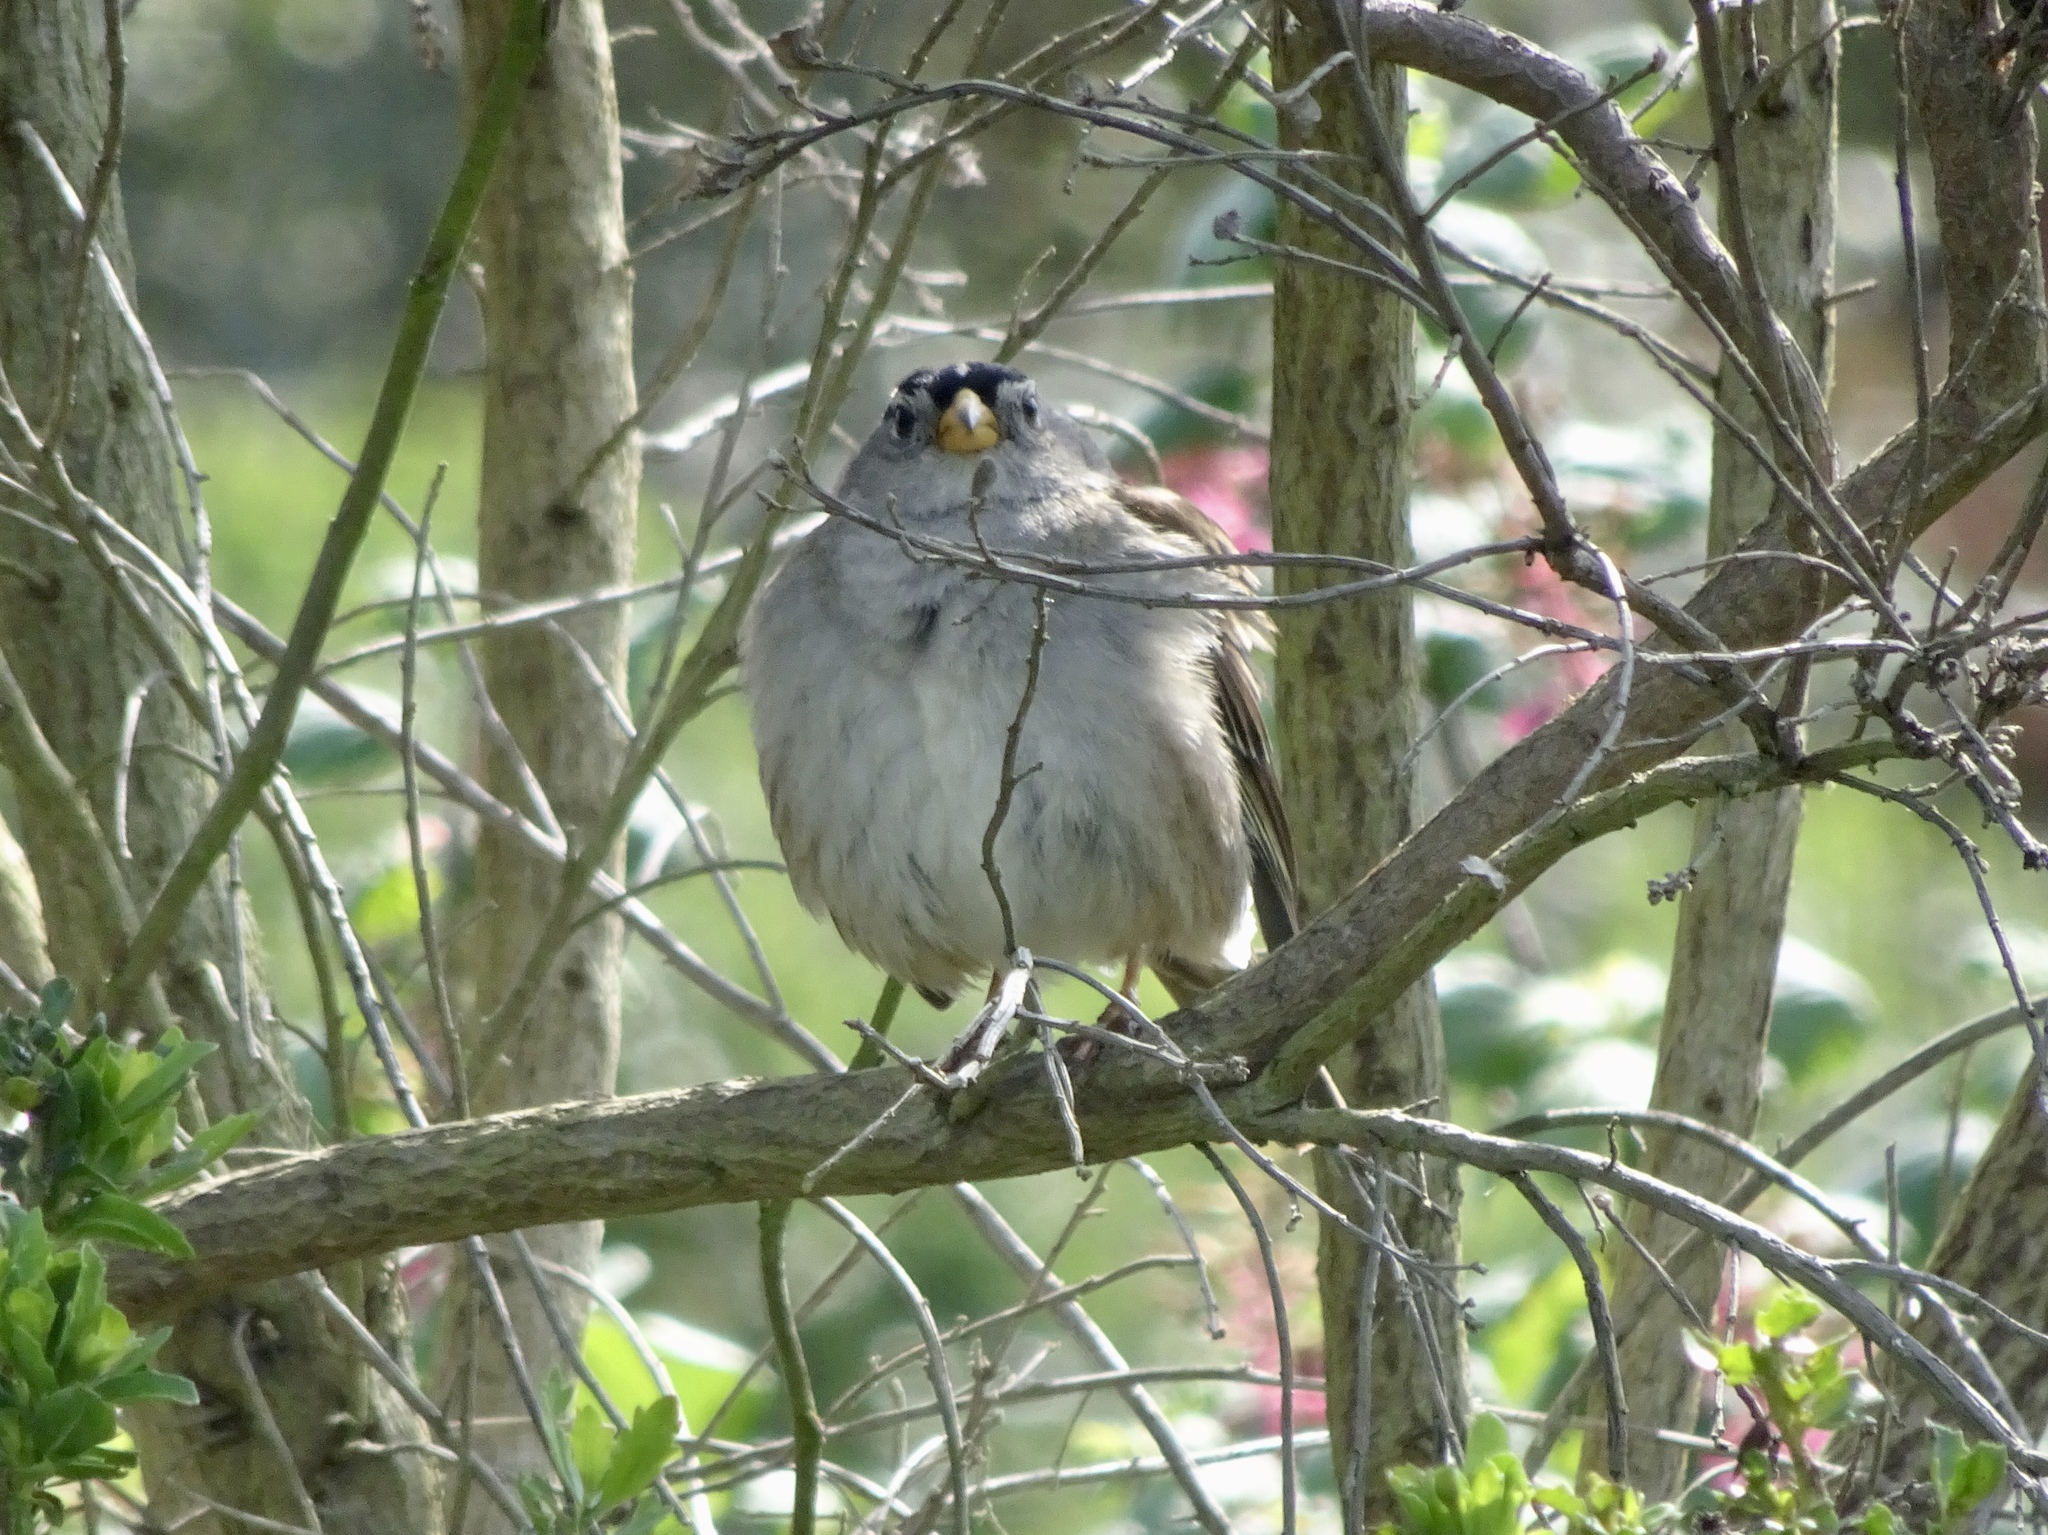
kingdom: Animalia
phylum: Chordata
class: Aves
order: Passeriformes
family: Passerellidae
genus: Zonotrichia
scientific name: Zonotrichia leucophrys
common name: White-crowned sparrow
